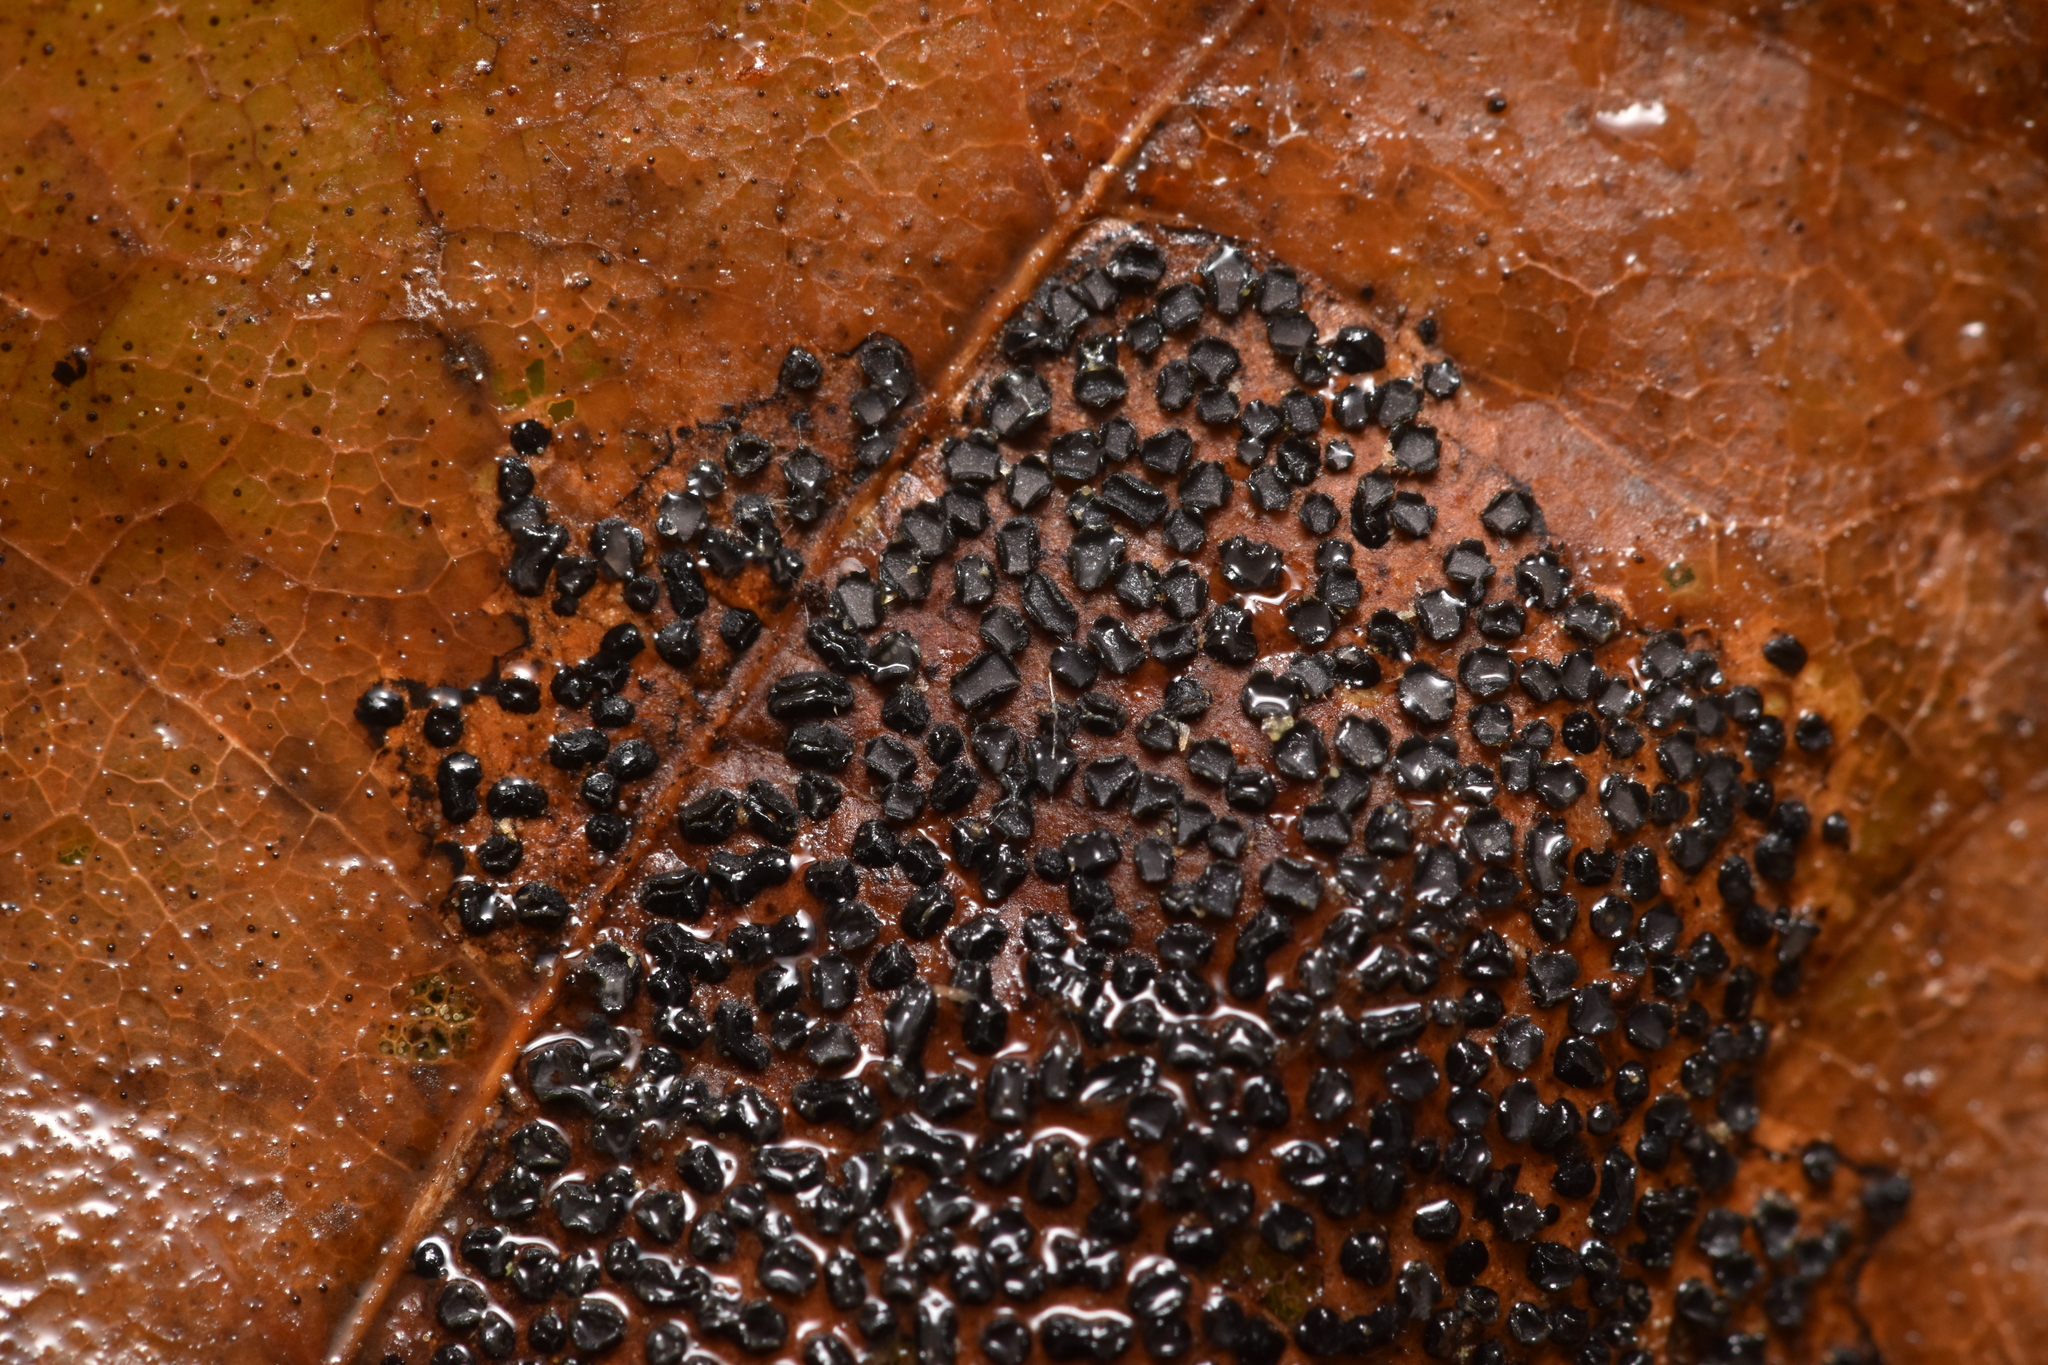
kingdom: Fungi
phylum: Ascomycota
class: Leotiomycetes
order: Rhytismatales
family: Rhytismataceae
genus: Rhytisma
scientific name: Rhytisma punctatum
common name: Speckled tar spot
